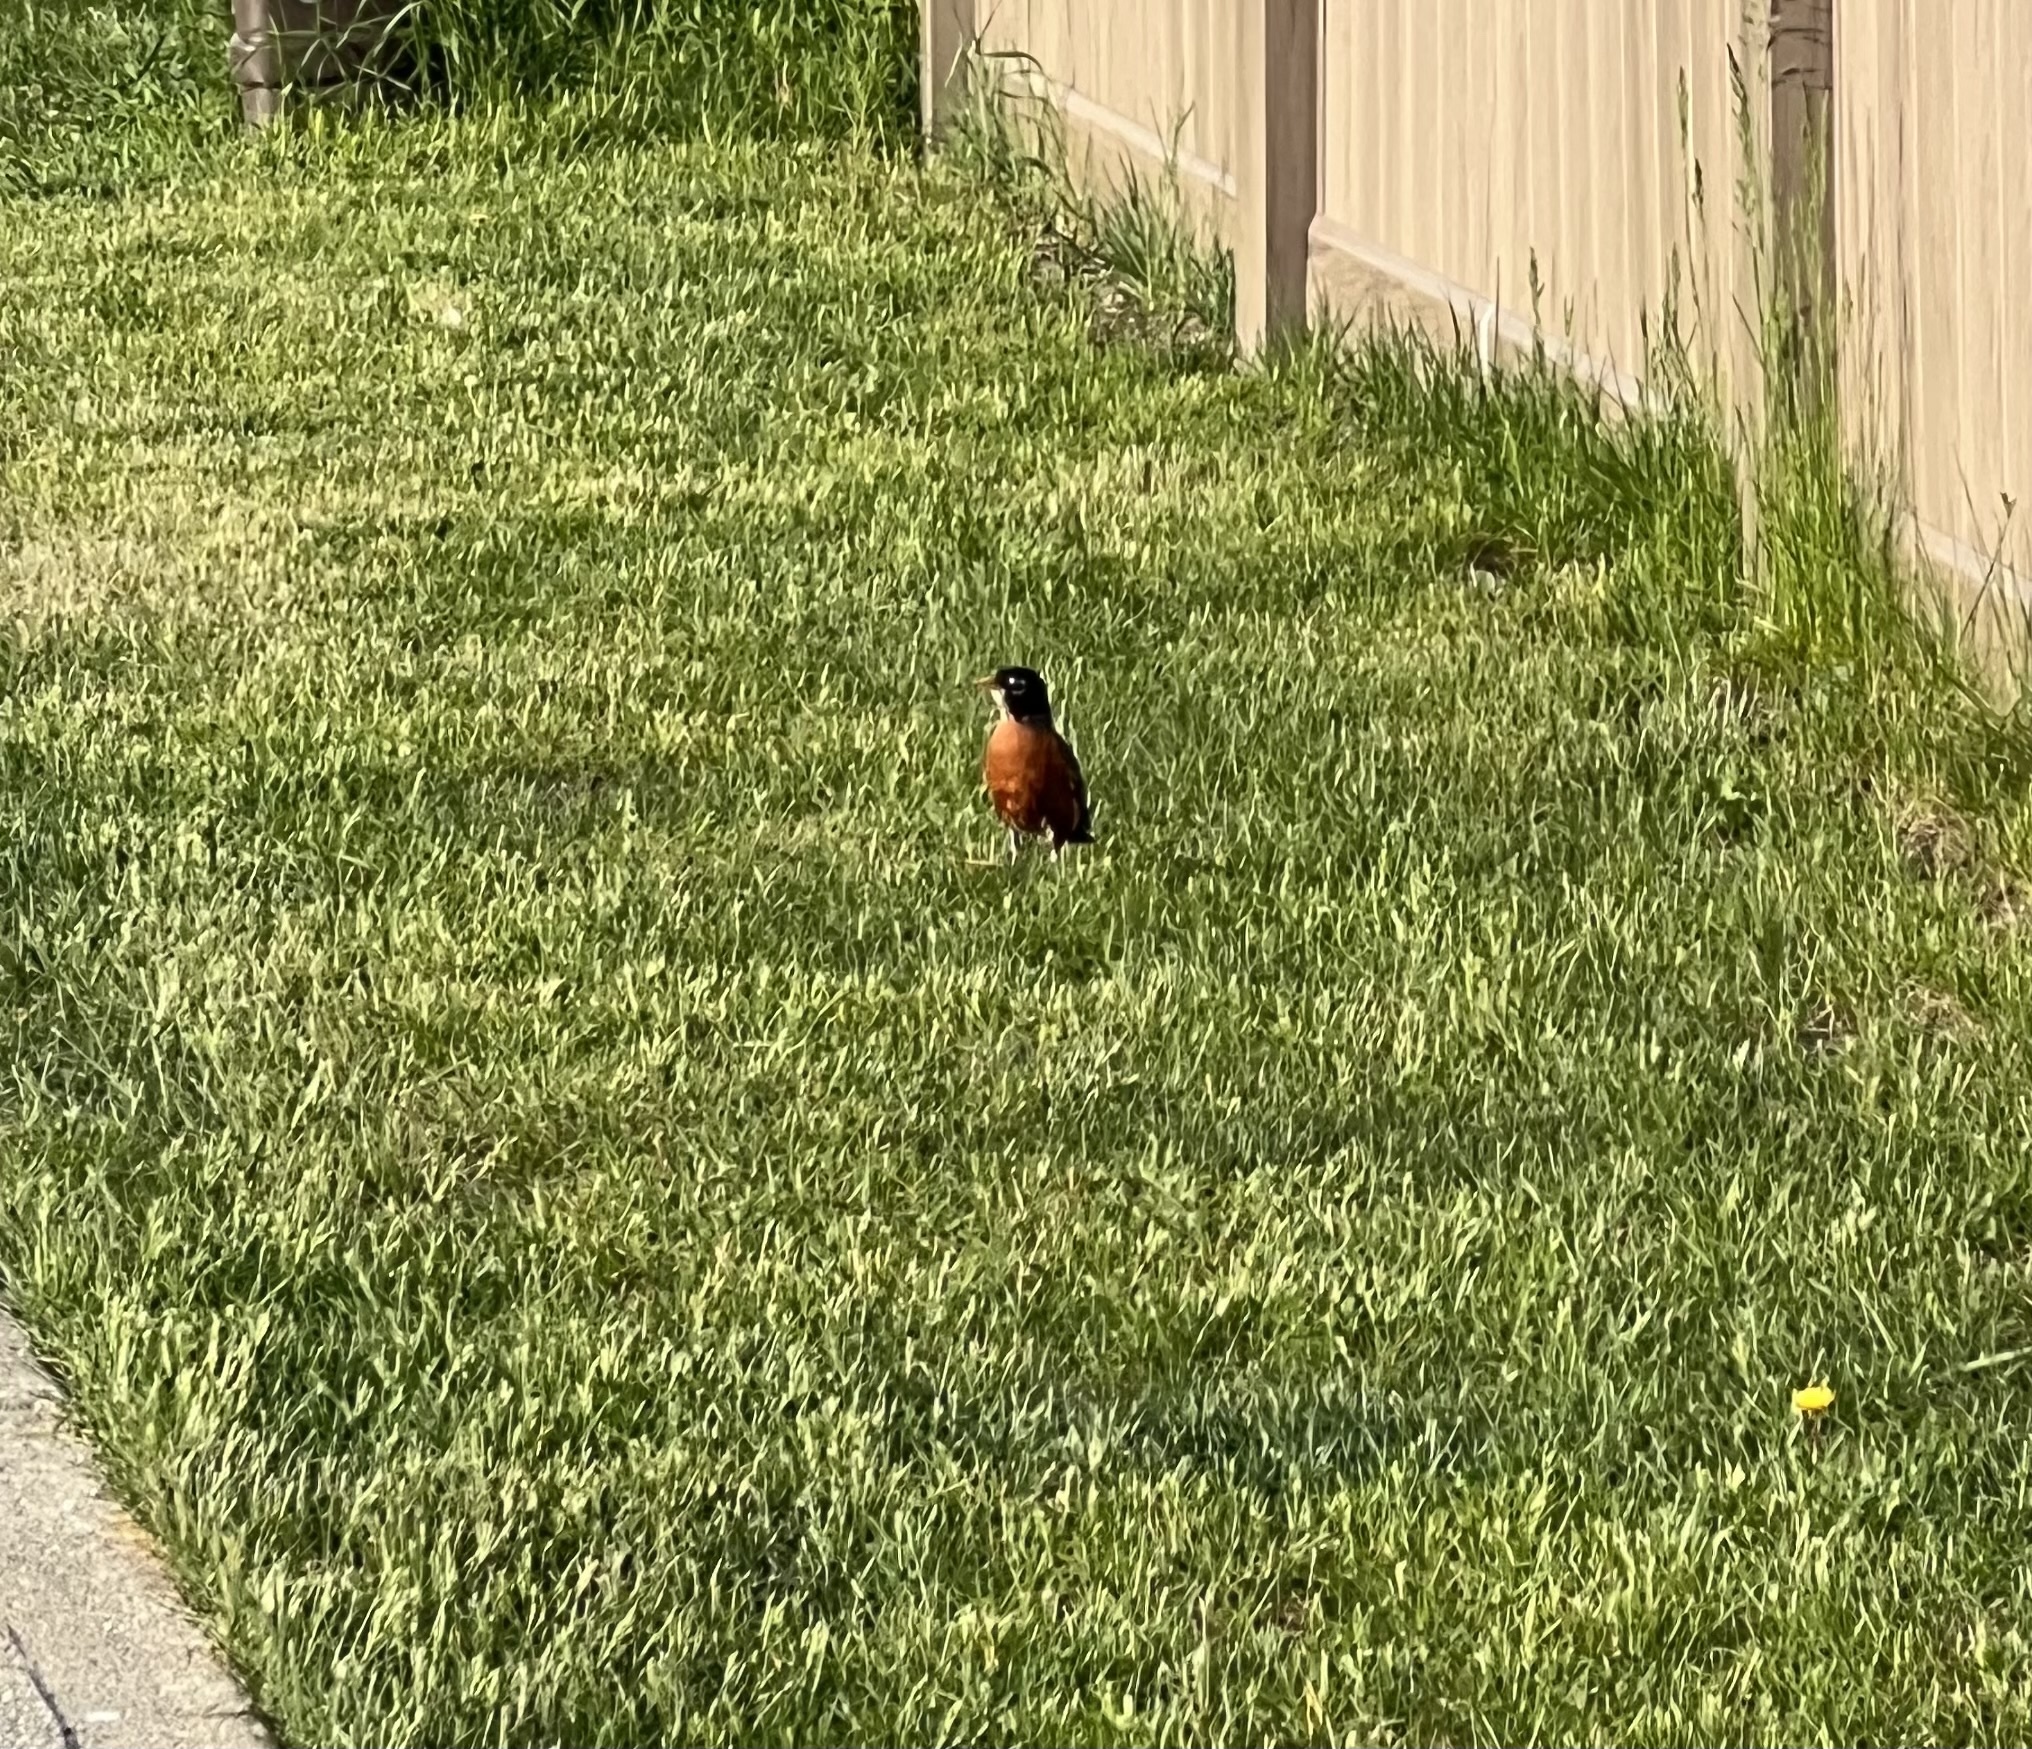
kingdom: Animalia
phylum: Chordata
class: Aves
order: Passeriformes
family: Turdidae
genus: Turdus
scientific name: Turdus migratorius
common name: American robin
